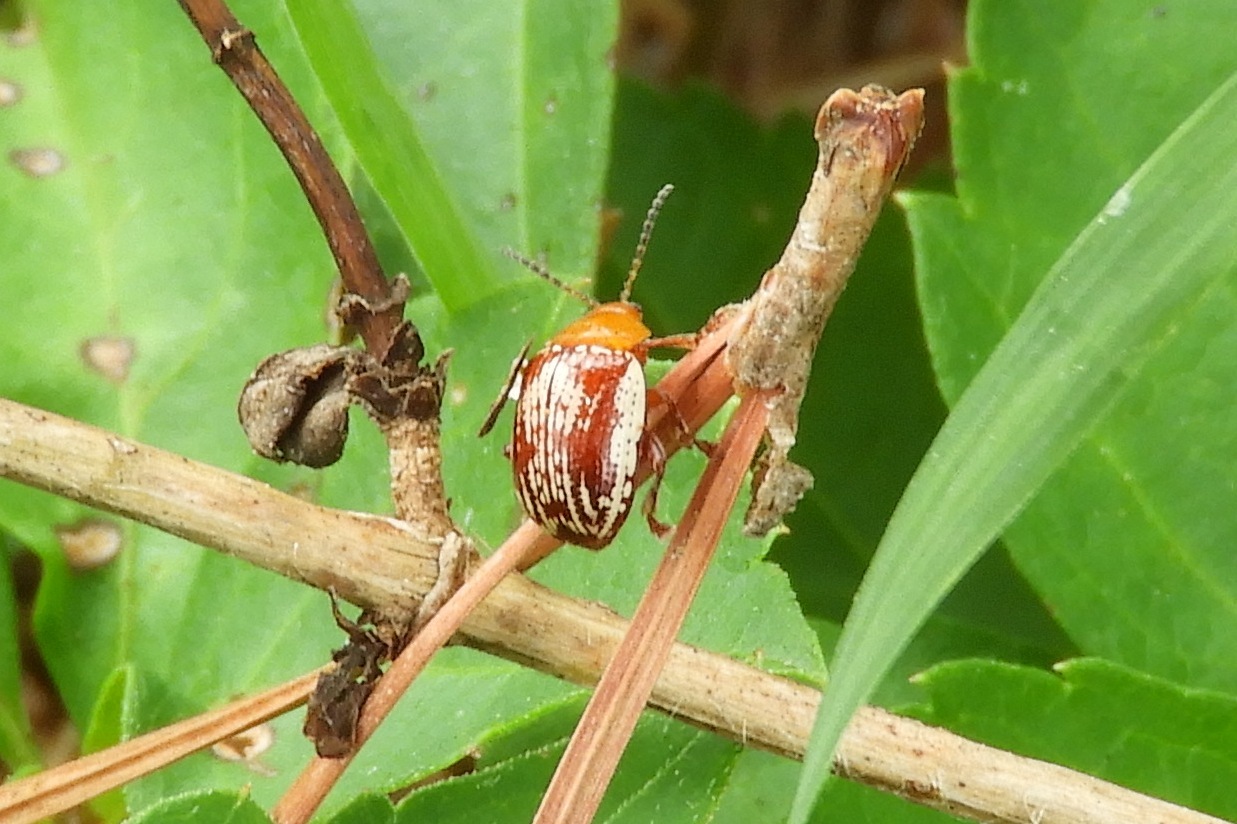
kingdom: Animalia
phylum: Arthropoda
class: Insecta
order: Coleoptera
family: Chrysomelidae
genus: Blepharida
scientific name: Blepharida rhois
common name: Sumac flea beetle
